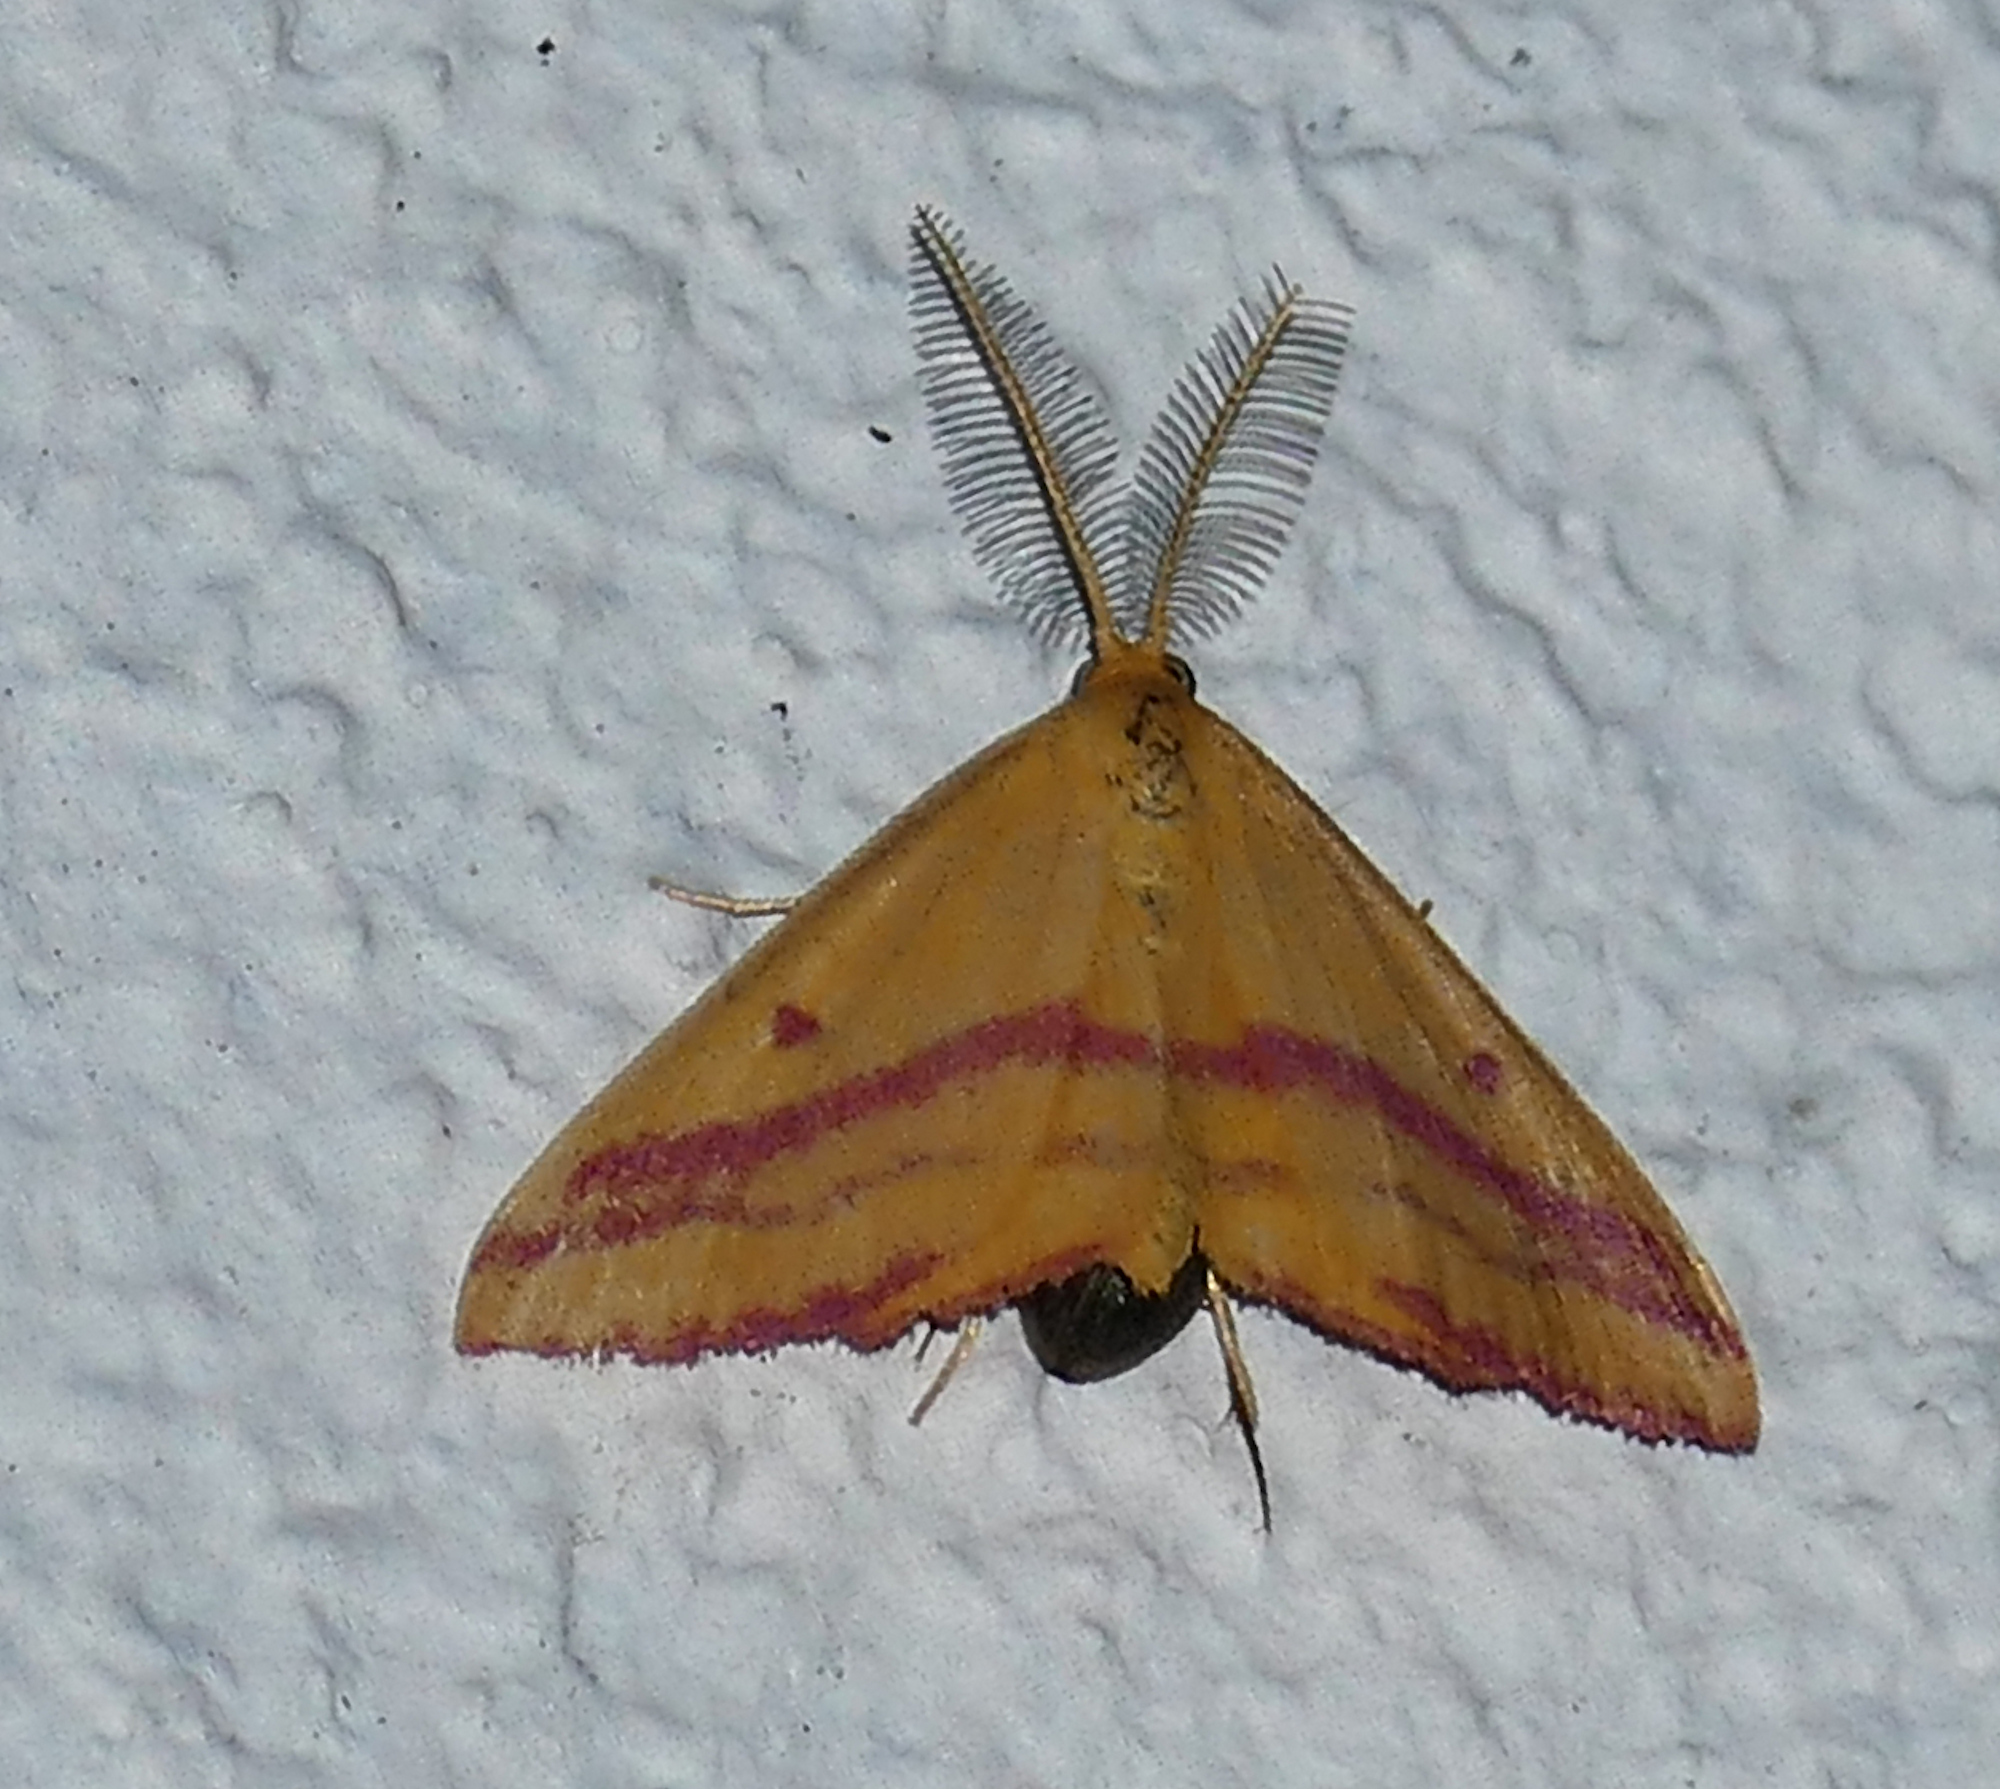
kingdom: Animalia
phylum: Arthropoda
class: Insecta
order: Lepidoptera
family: Geometridae
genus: Haematopis
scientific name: Haematopis grataria
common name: Chickweed geometer
